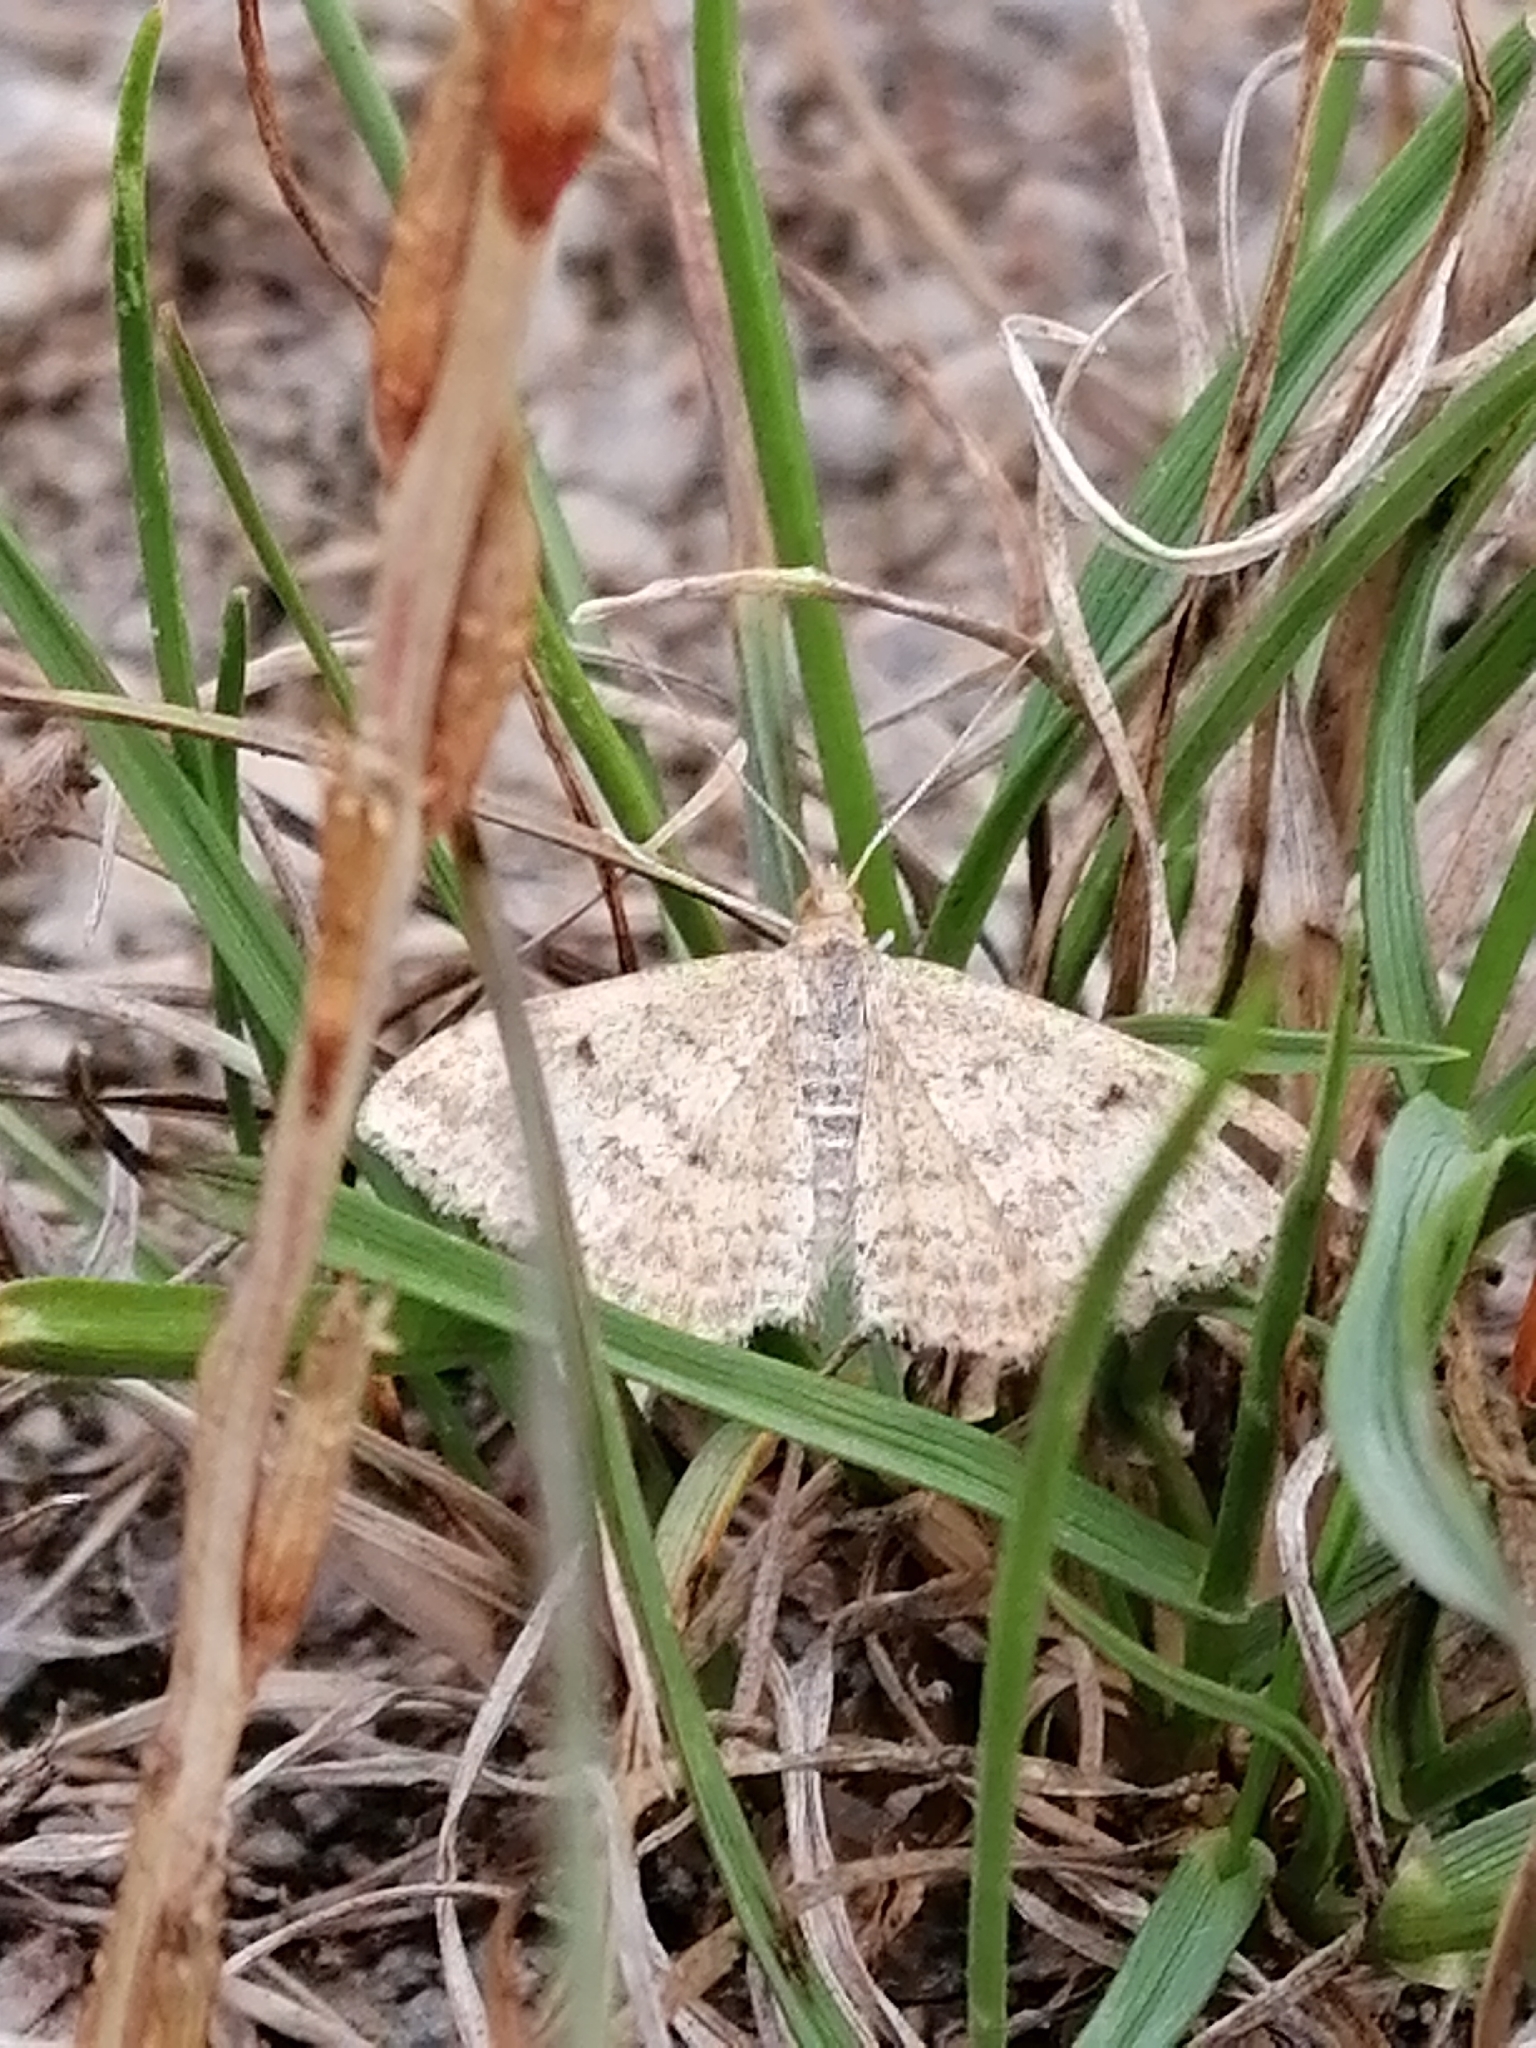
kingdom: Animalia
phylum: Arthropoda
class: Insecta
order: Lepidoptera
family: Geometridae
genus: Scopula
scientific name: Scopula rubraria
